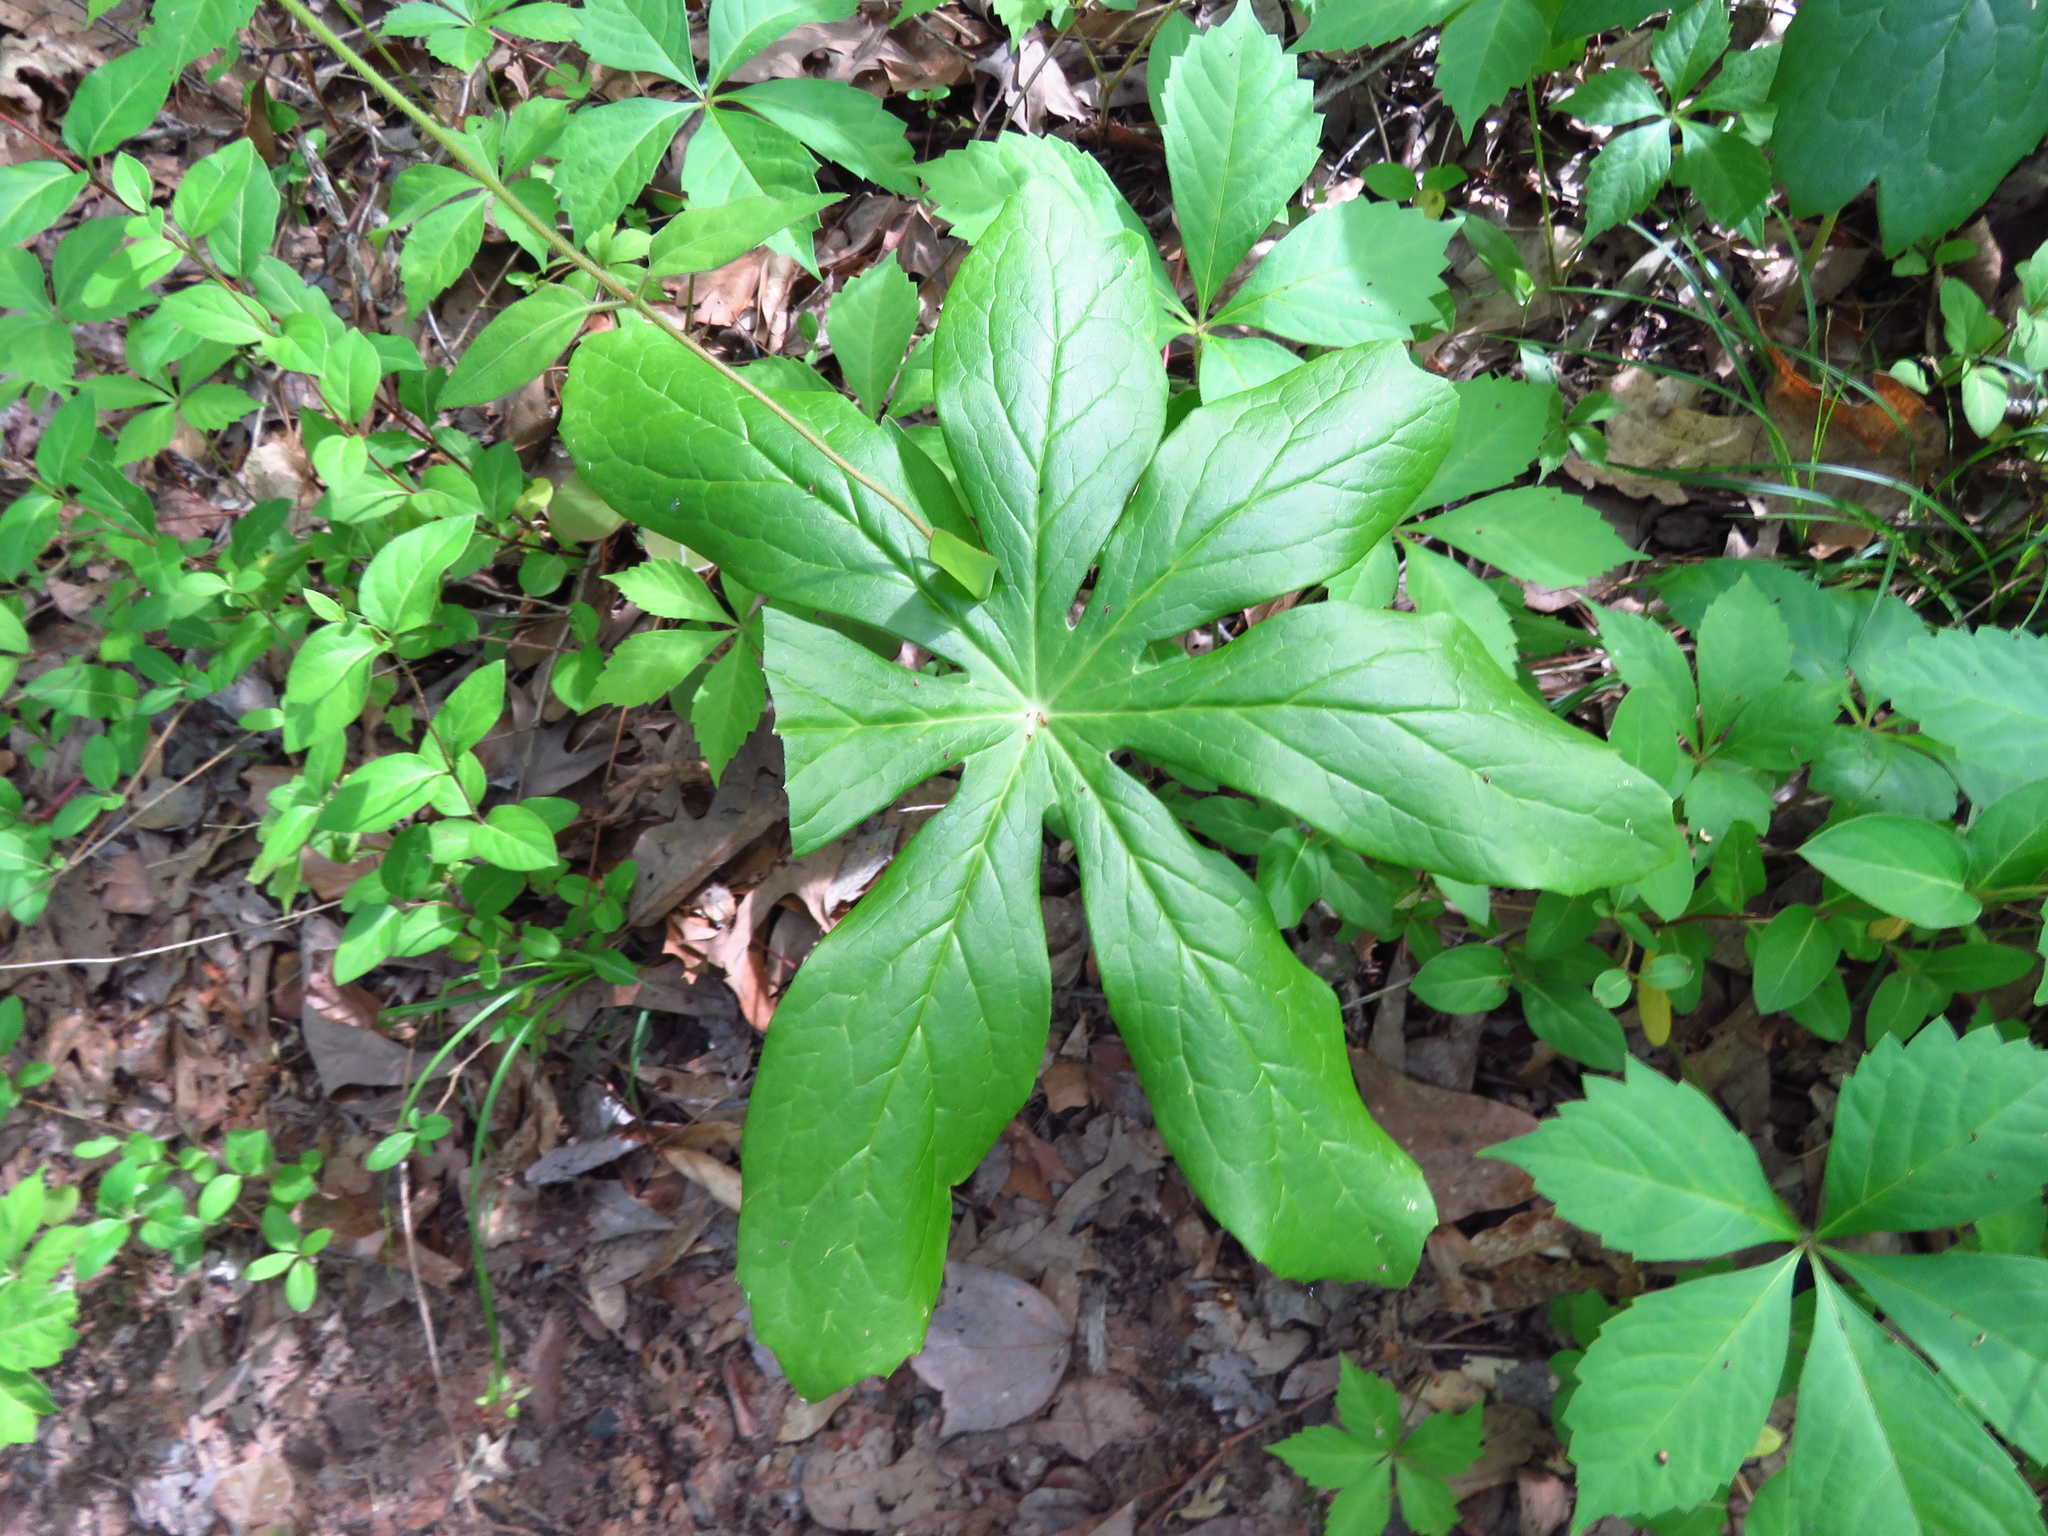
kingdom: Plantae
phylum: Tracheophyta
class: Magnoliopsida
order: Ranunculales
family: Berberidaceae
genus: Podophyllum
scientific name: Podophyllum peltatum
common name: Wild mandrake
